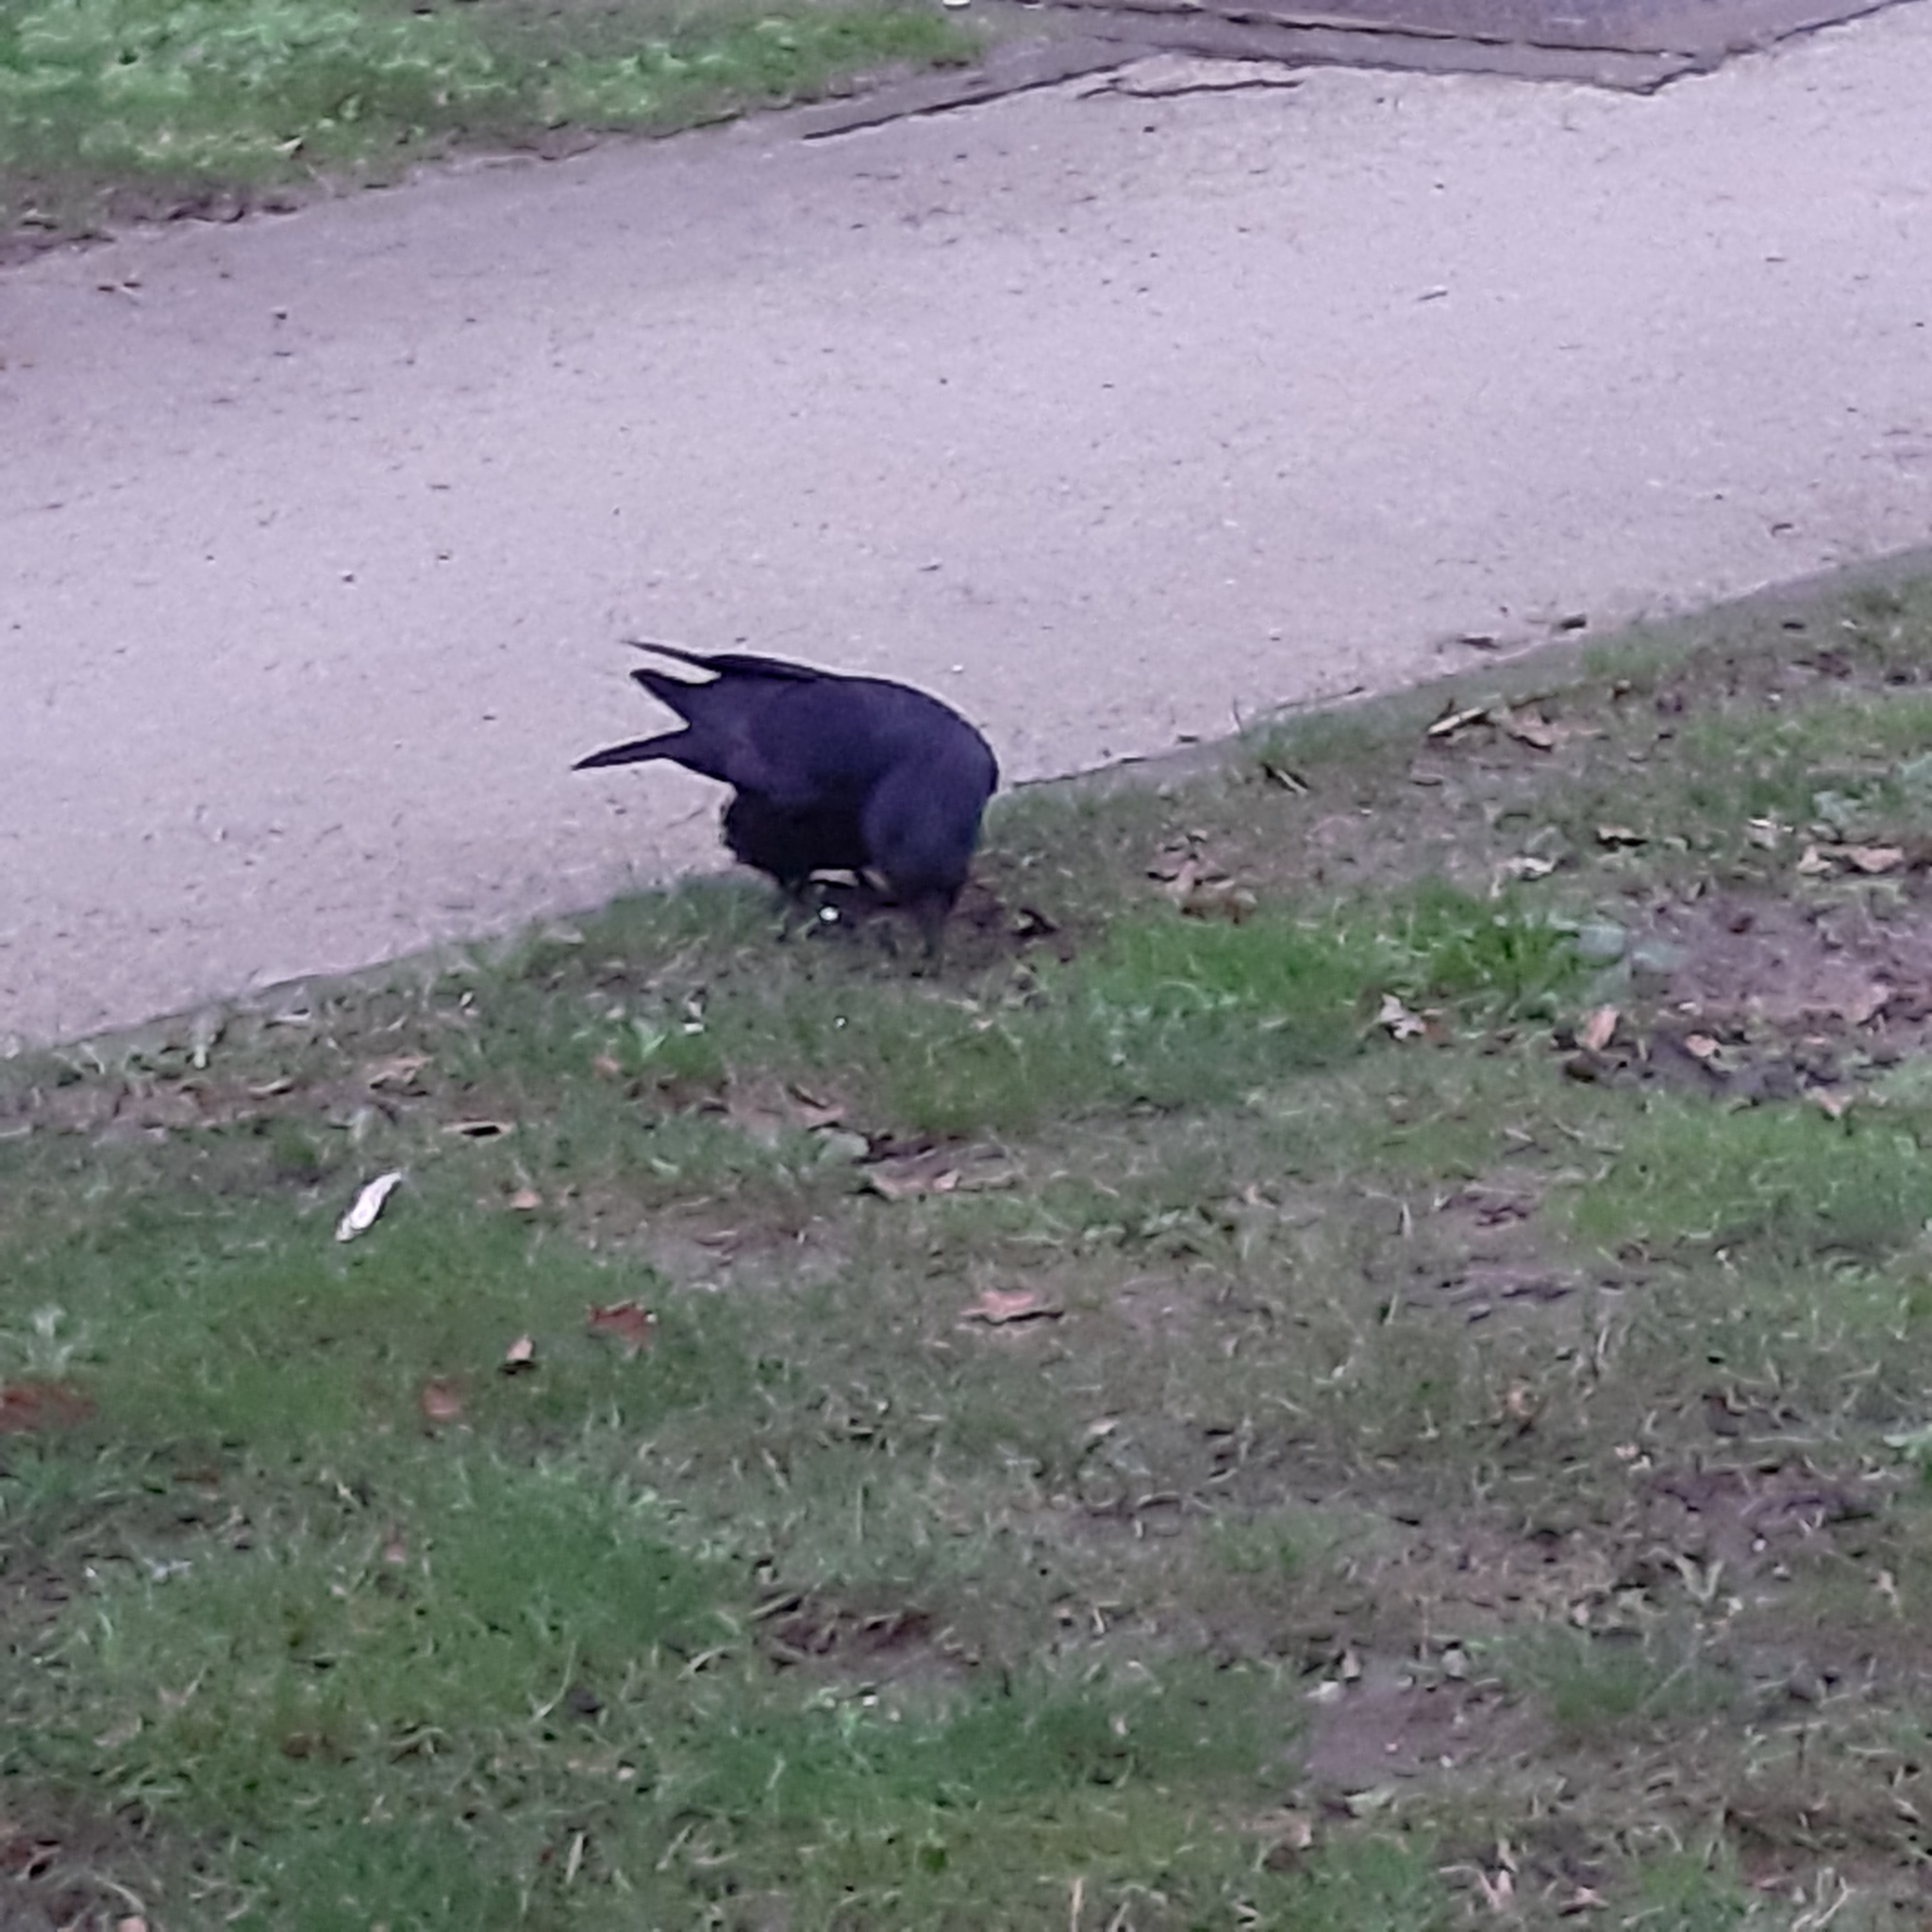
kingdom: Animalia
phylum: Chordata
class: Aves
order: Passeriformes
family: Corvidae
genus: Corvus
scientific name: Corvus corone
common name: Carrion crow
